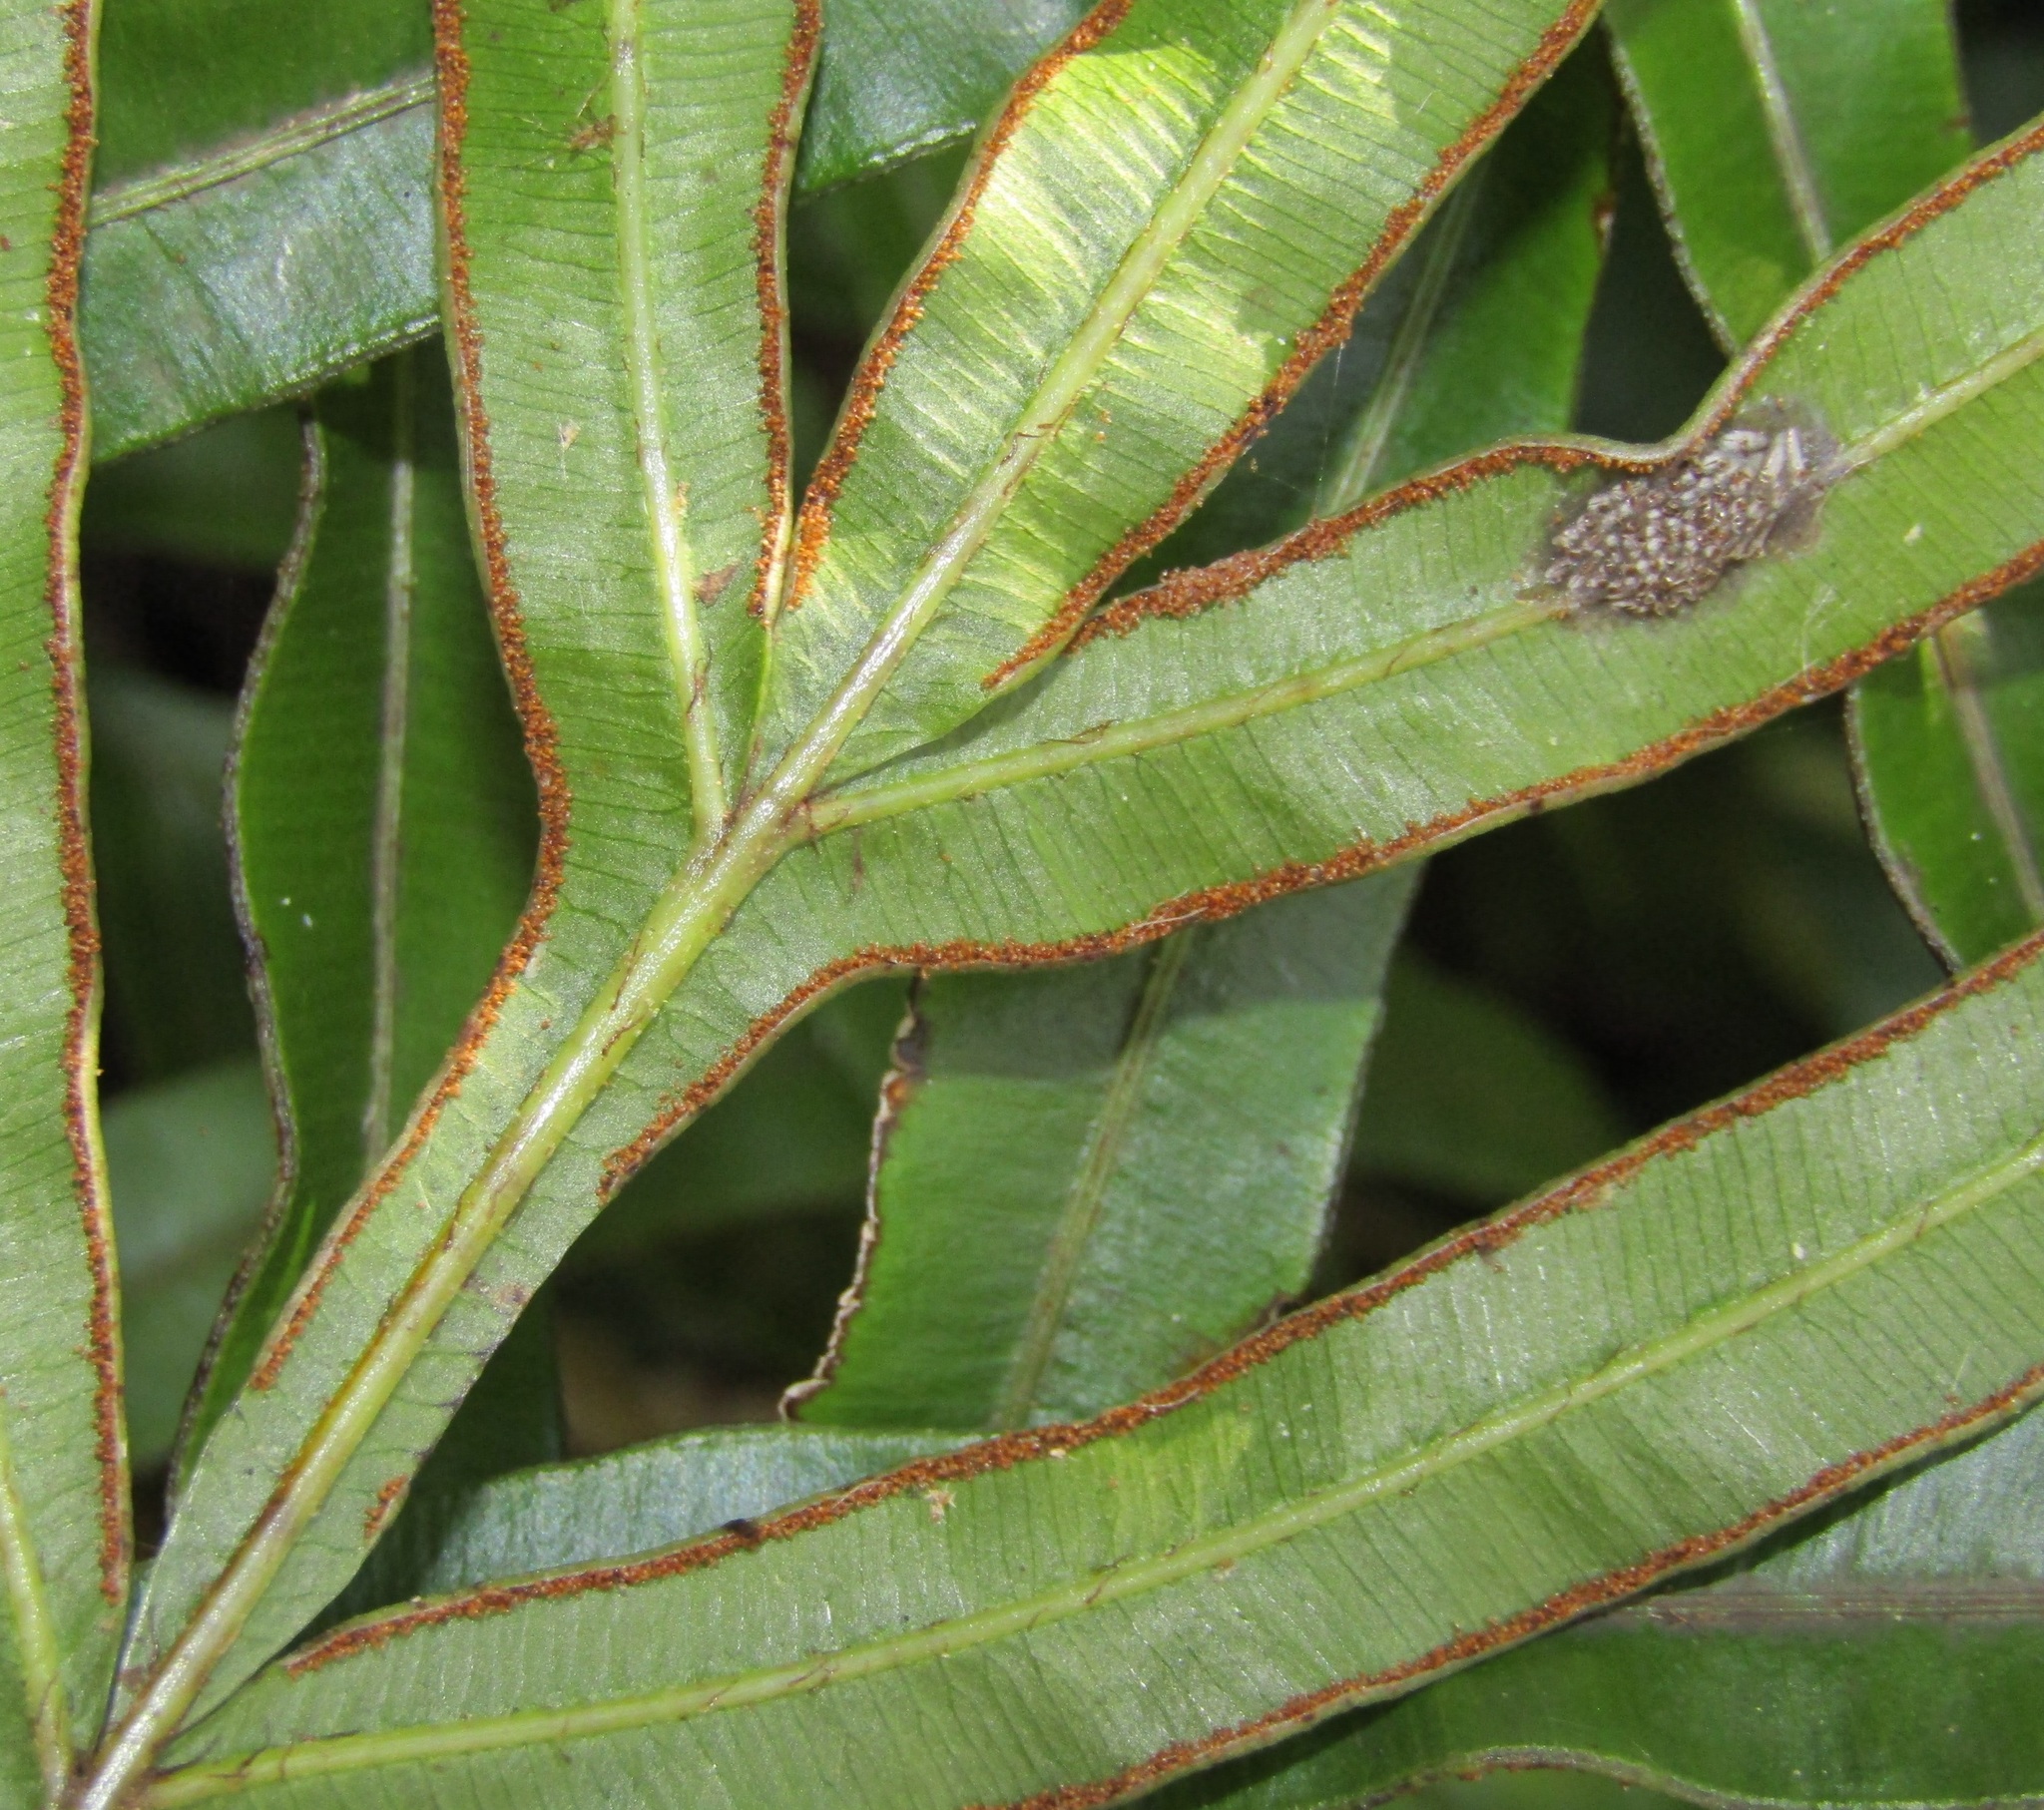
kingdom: Plantae
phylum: Tracheophyta
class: Polypodiopsida
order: Polypodiales
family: Pteridaceae
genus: Pteris
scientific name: Pteris cretica
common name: Ribbon fern
